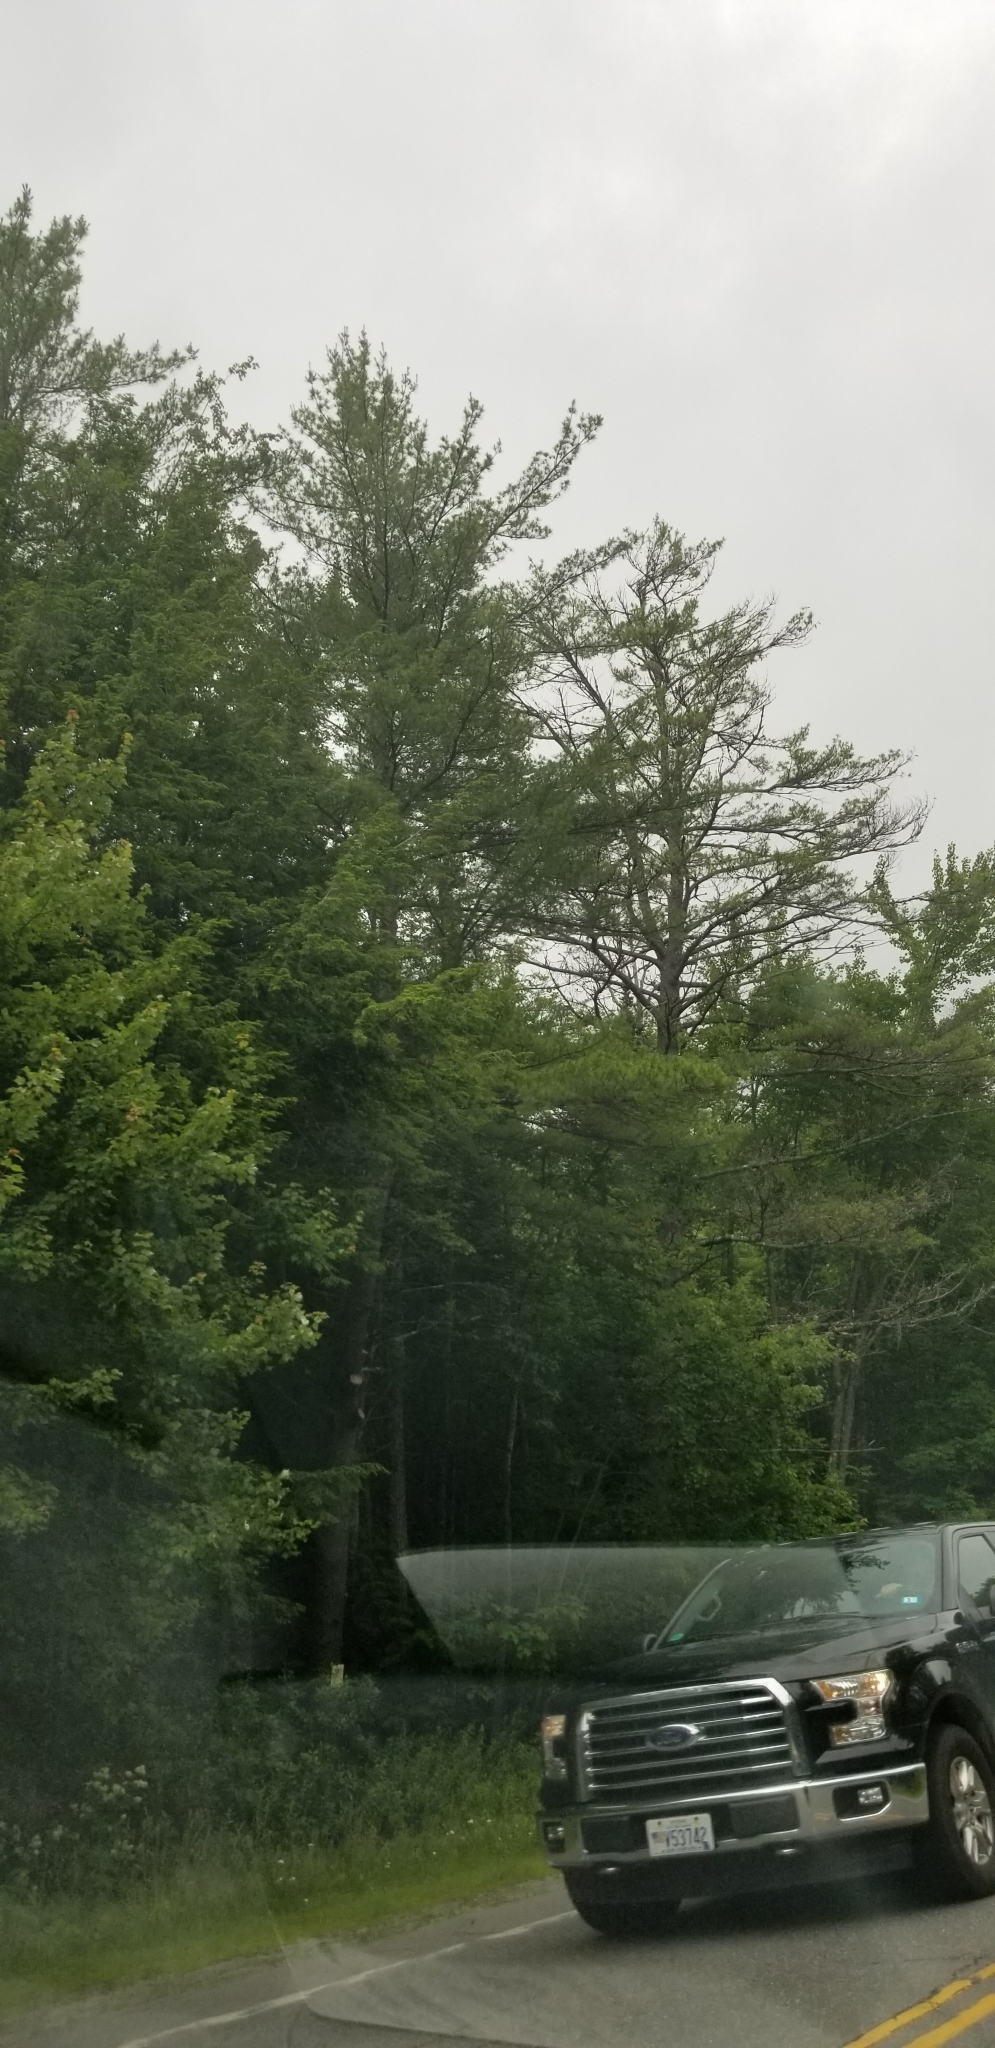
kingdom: Plantae
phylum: Tracheophyta
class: Pinopsida
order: Pinales
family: Pinaceae
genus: Pinus
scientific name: Pinus strobus
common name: Weymouth pine
